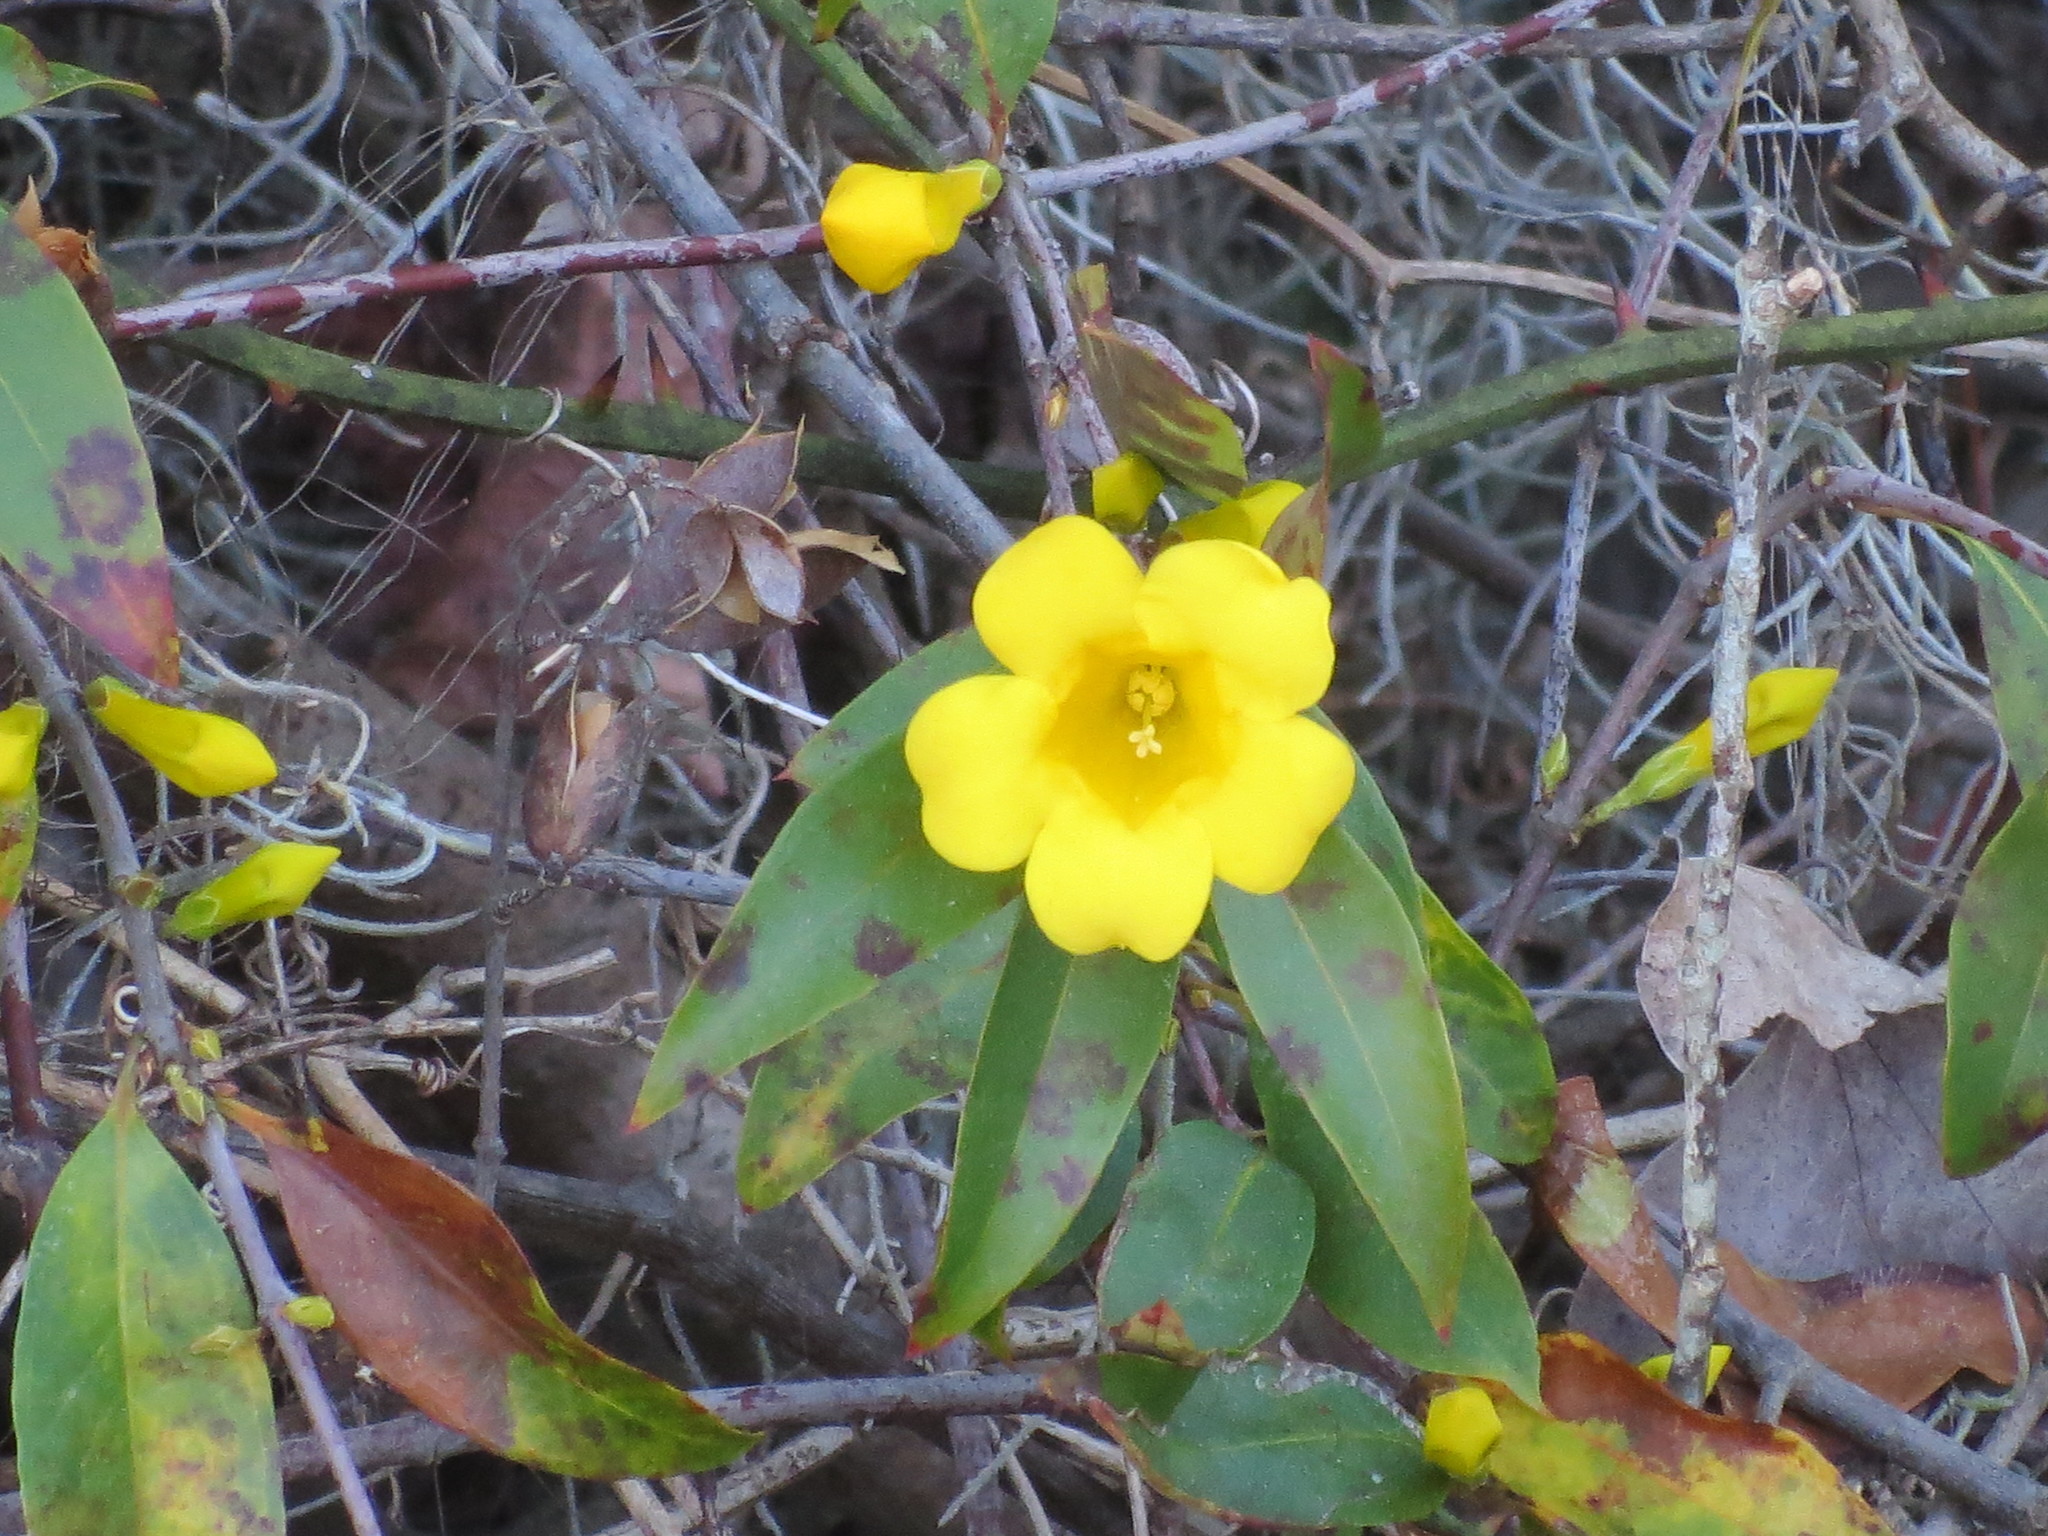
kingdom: Plantae
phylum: Tracheophyta
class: Magnoliopsida
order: Gentianales
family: Gelsemiaceae
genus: Gelsemium
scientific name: Gelsemium sempervirens
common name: Carolina-jasmine
